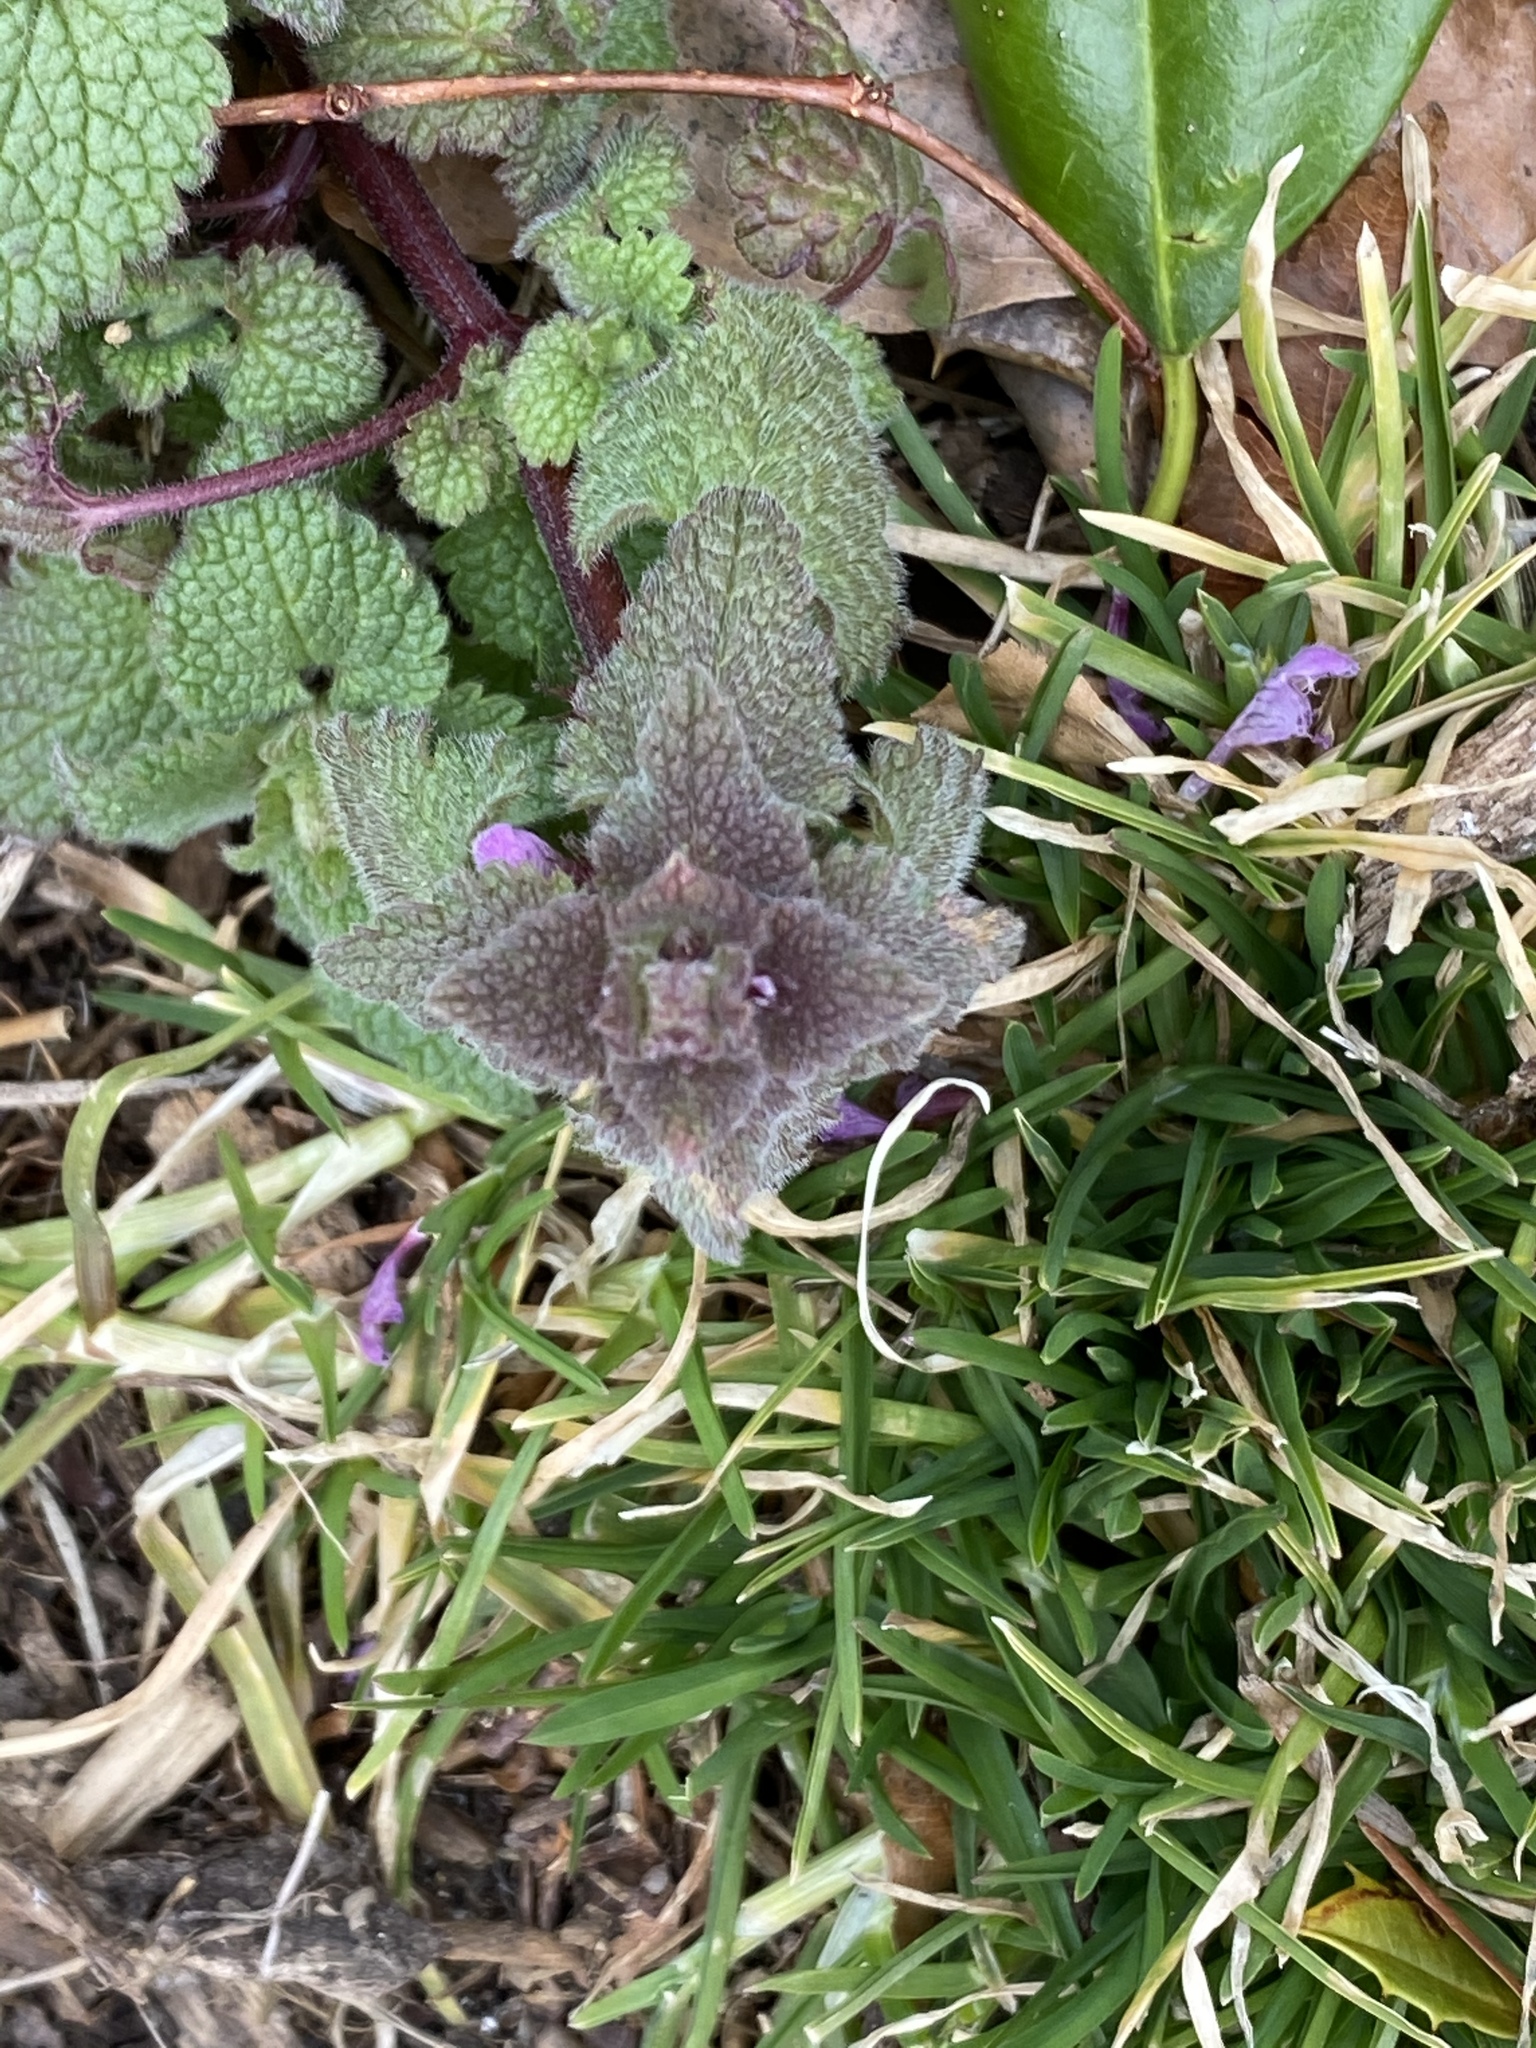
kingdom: Plantae
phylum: Tracheophyta
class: Magnoliopsida
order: Lamiales
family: Lamiaceae
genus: Lamium
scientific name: Lamium purpureum
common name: Red dead-nettle
